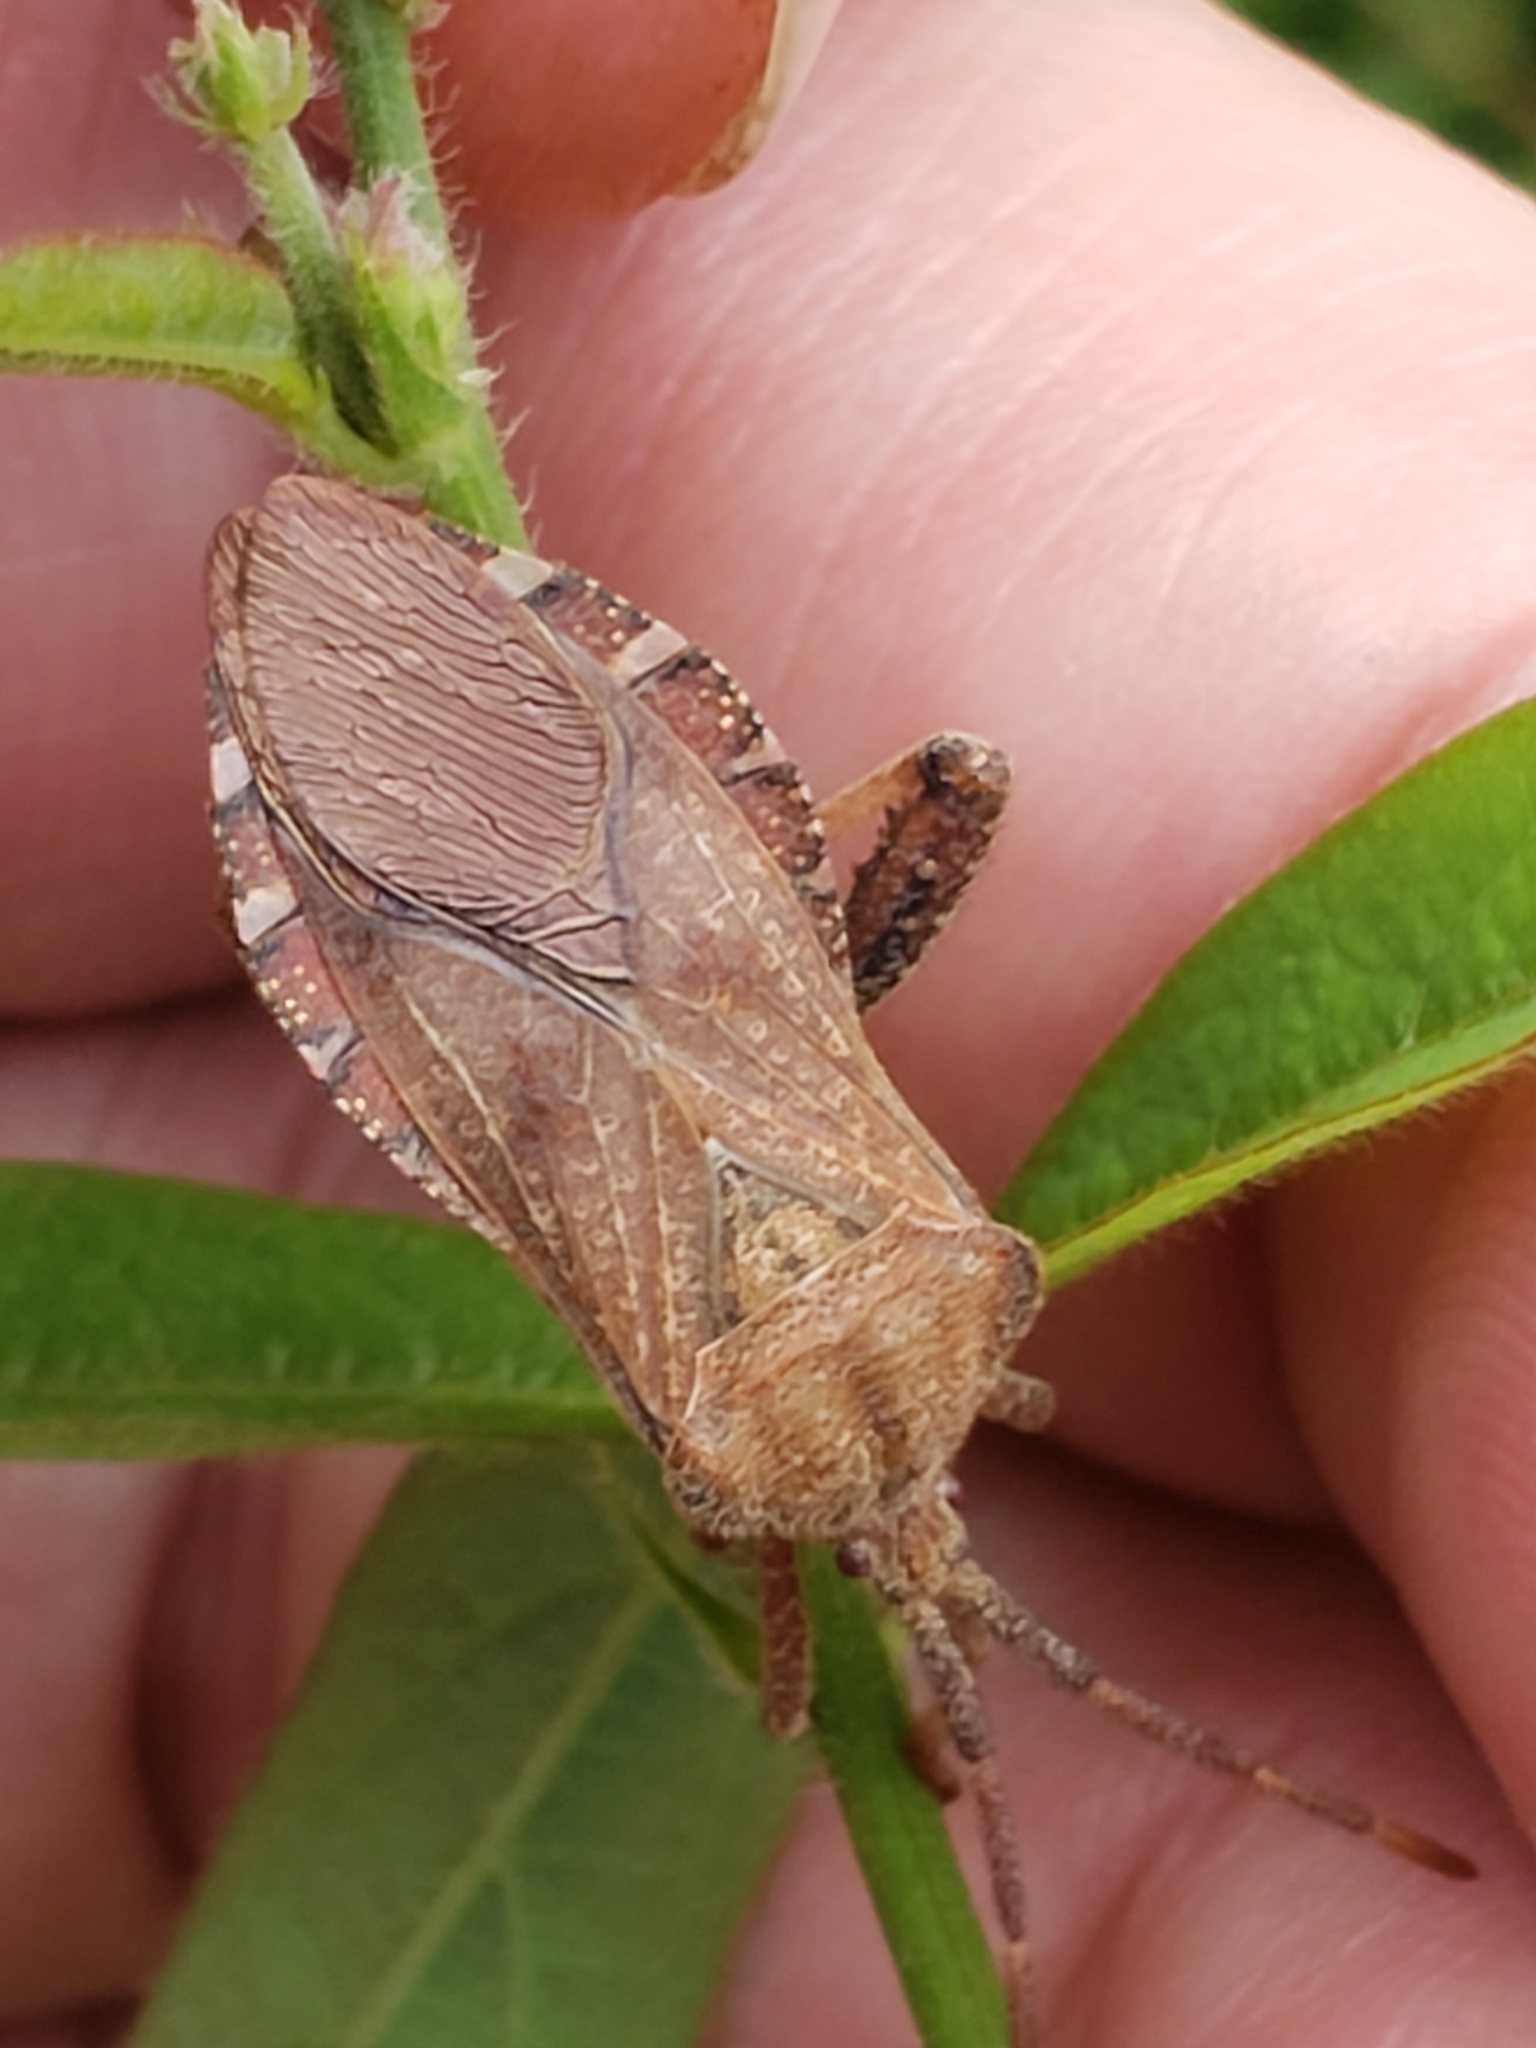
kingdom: Animalia
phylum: Arthropoda
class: Insecta
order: Hemiptera
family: Coreidae
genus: Piezogaster
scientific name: Piezogaster calcarator
